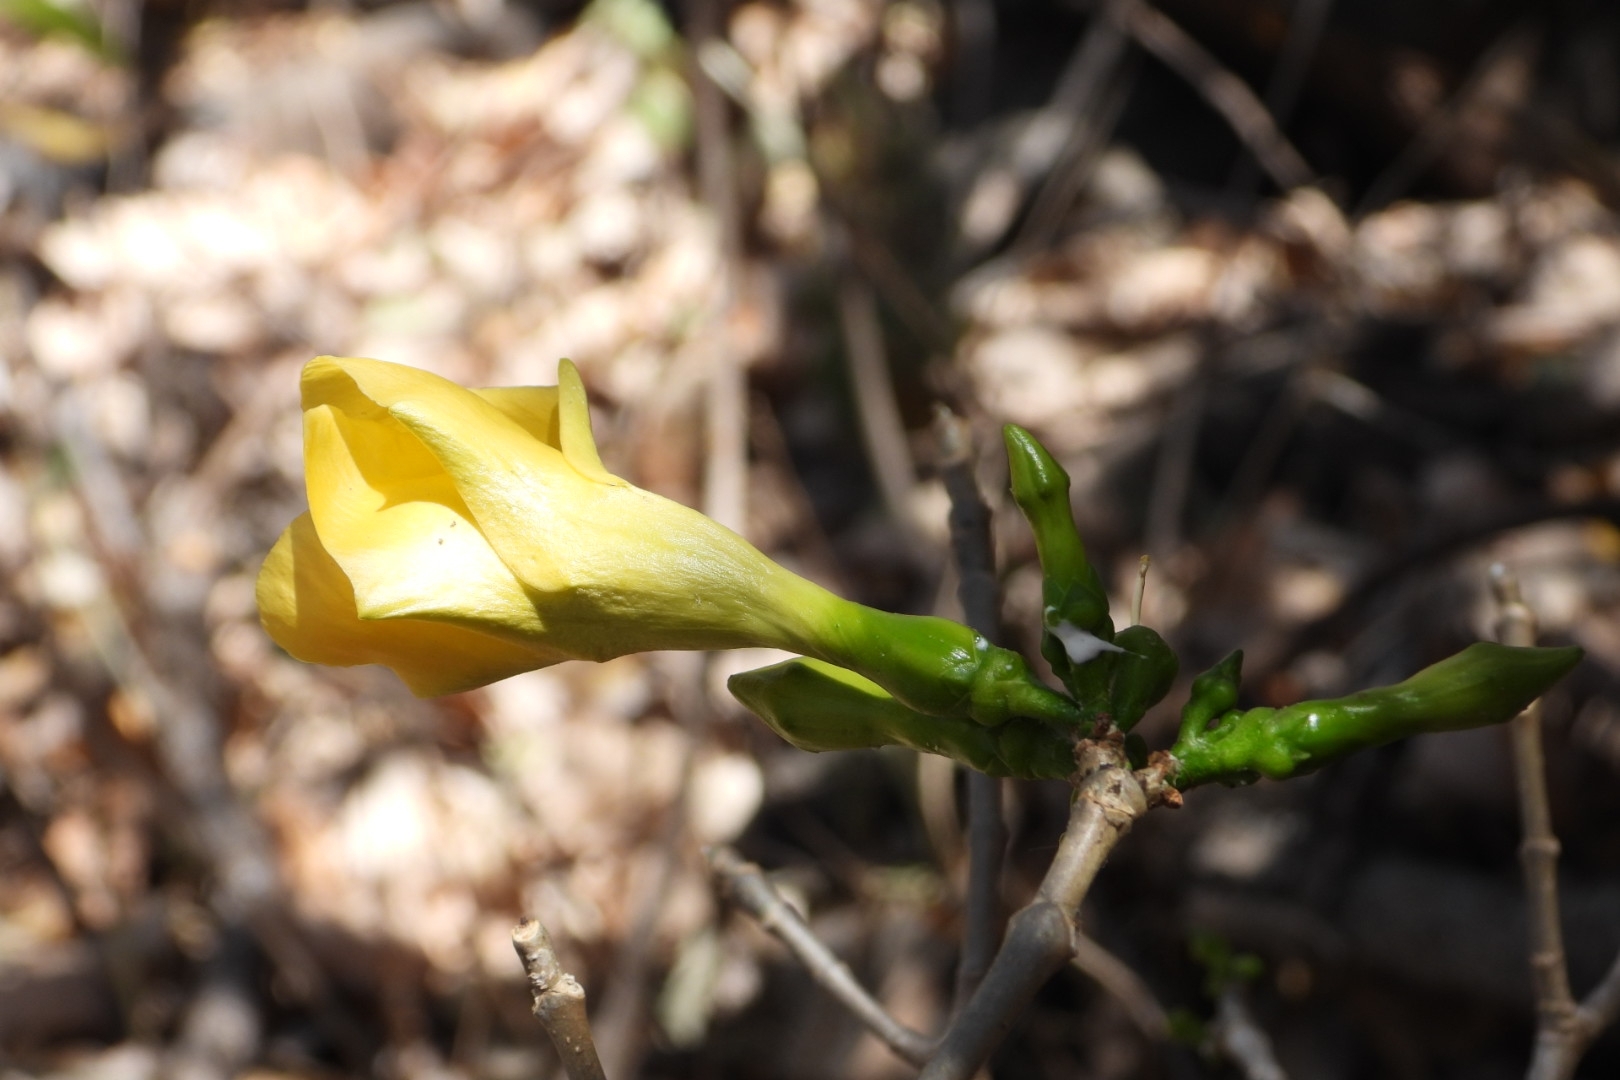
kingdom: Plantae
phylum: Tracheophyta
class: Magnoliopsida
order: Gentianales
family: Apocynaceae
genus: Tabernaemontana
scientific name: Tabernaemontana tomentosa
